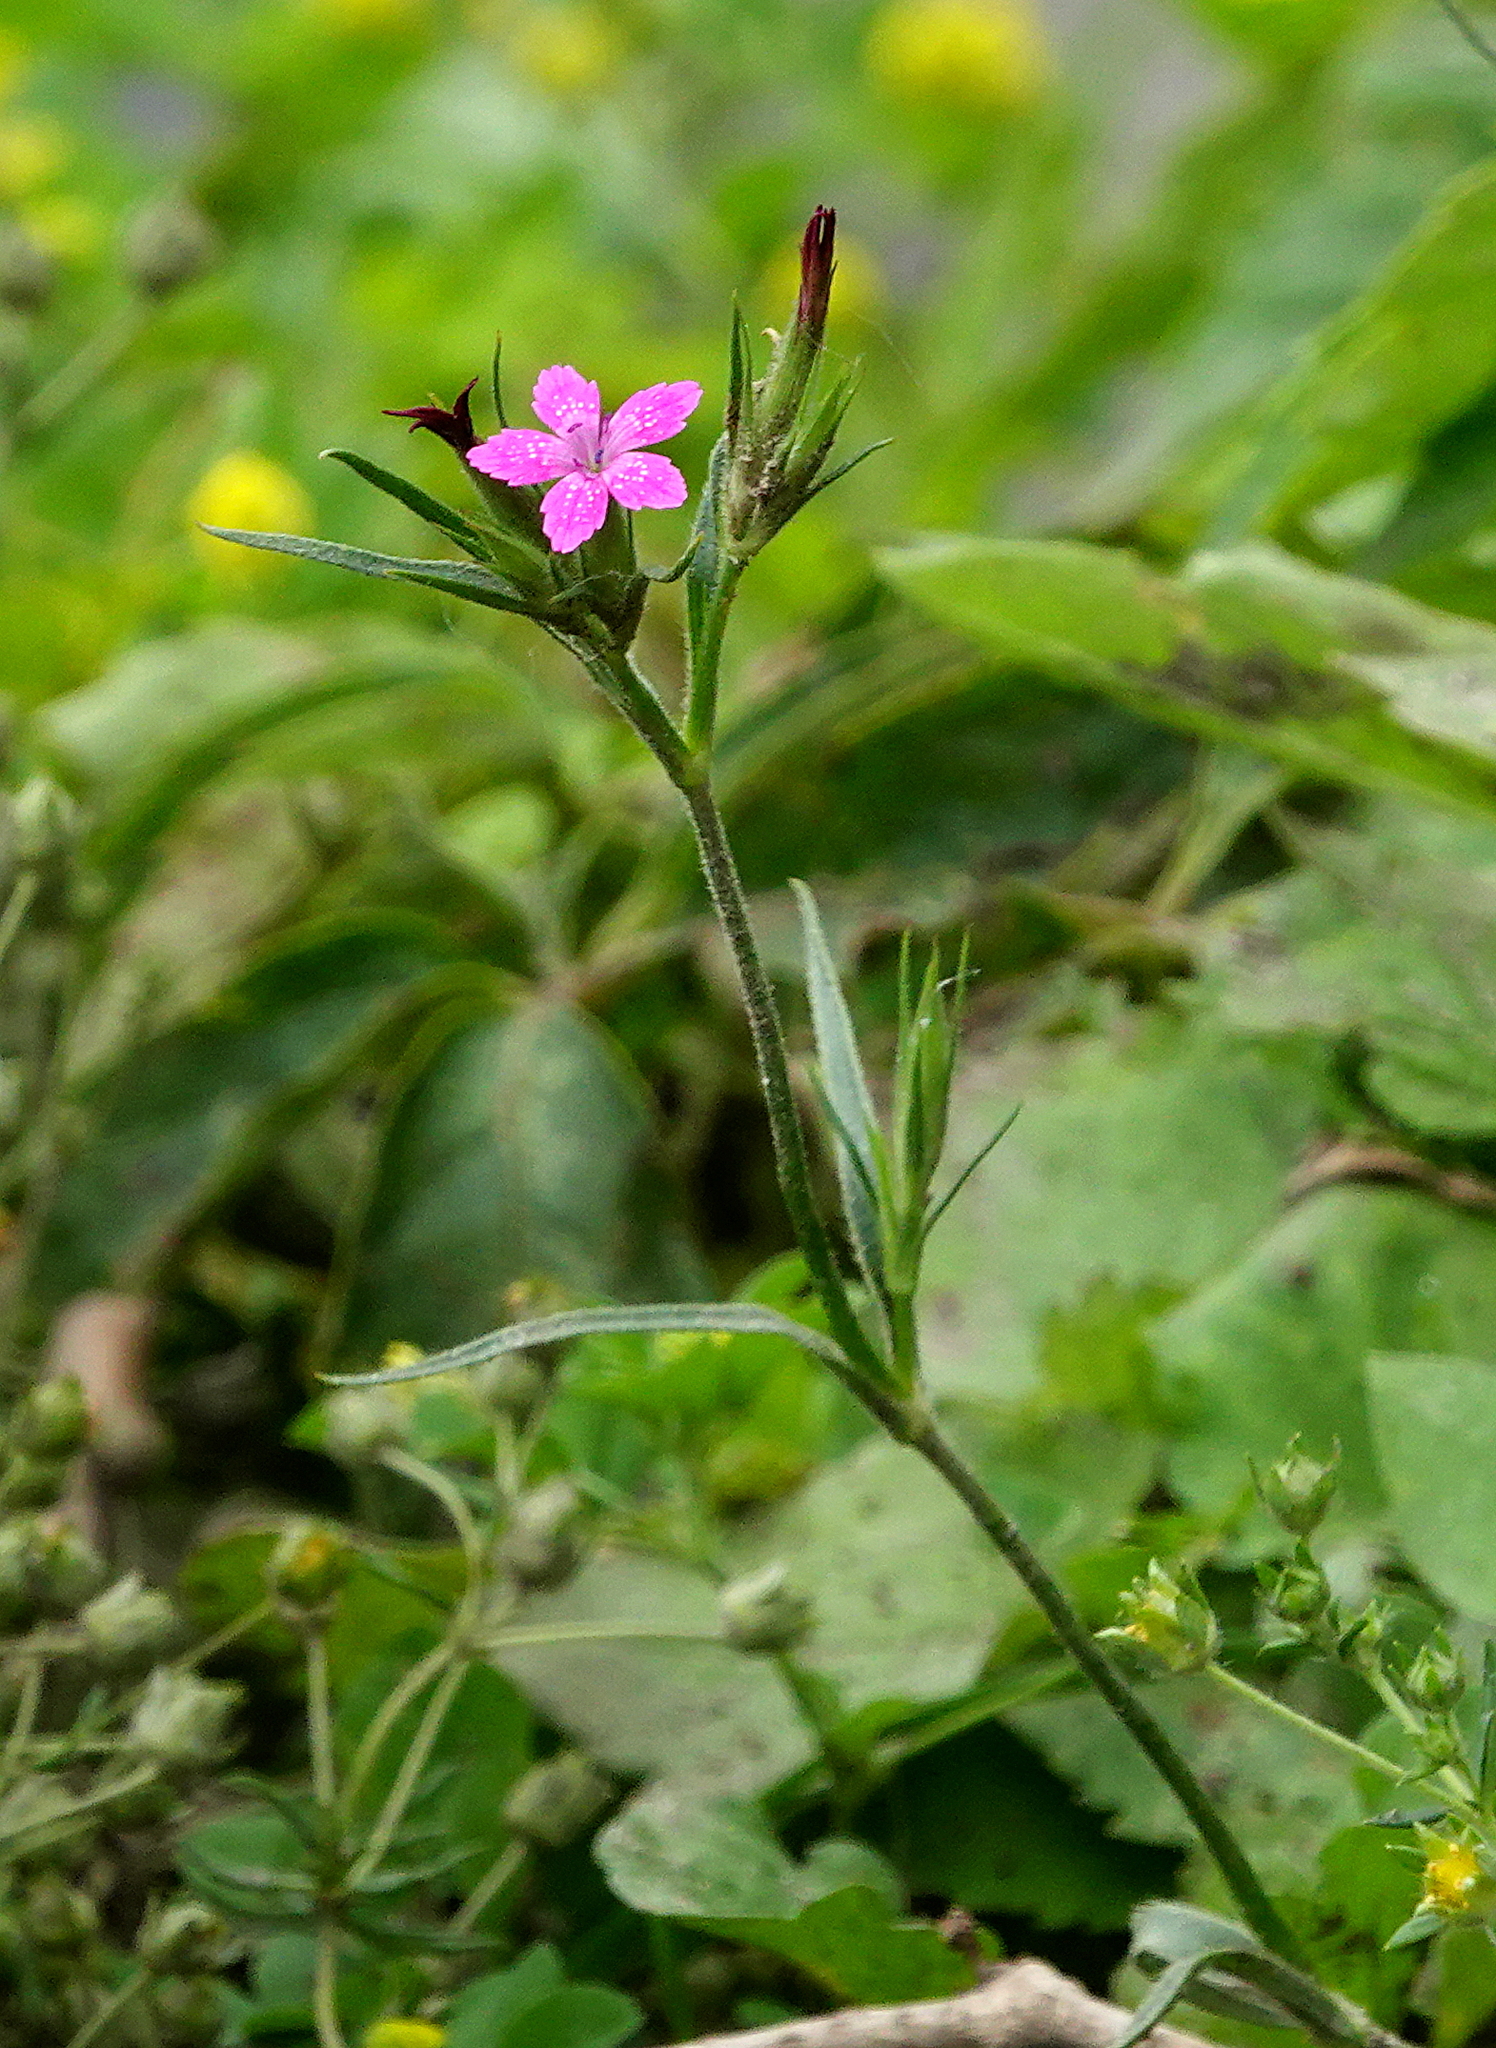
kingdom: Plantae
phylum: Tracheophyta
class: Magnoliopsida
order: Caryophyllales
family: Caryophyllaceae
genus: Dianthus
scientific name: Dianthus armeria
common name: Deptford pink
